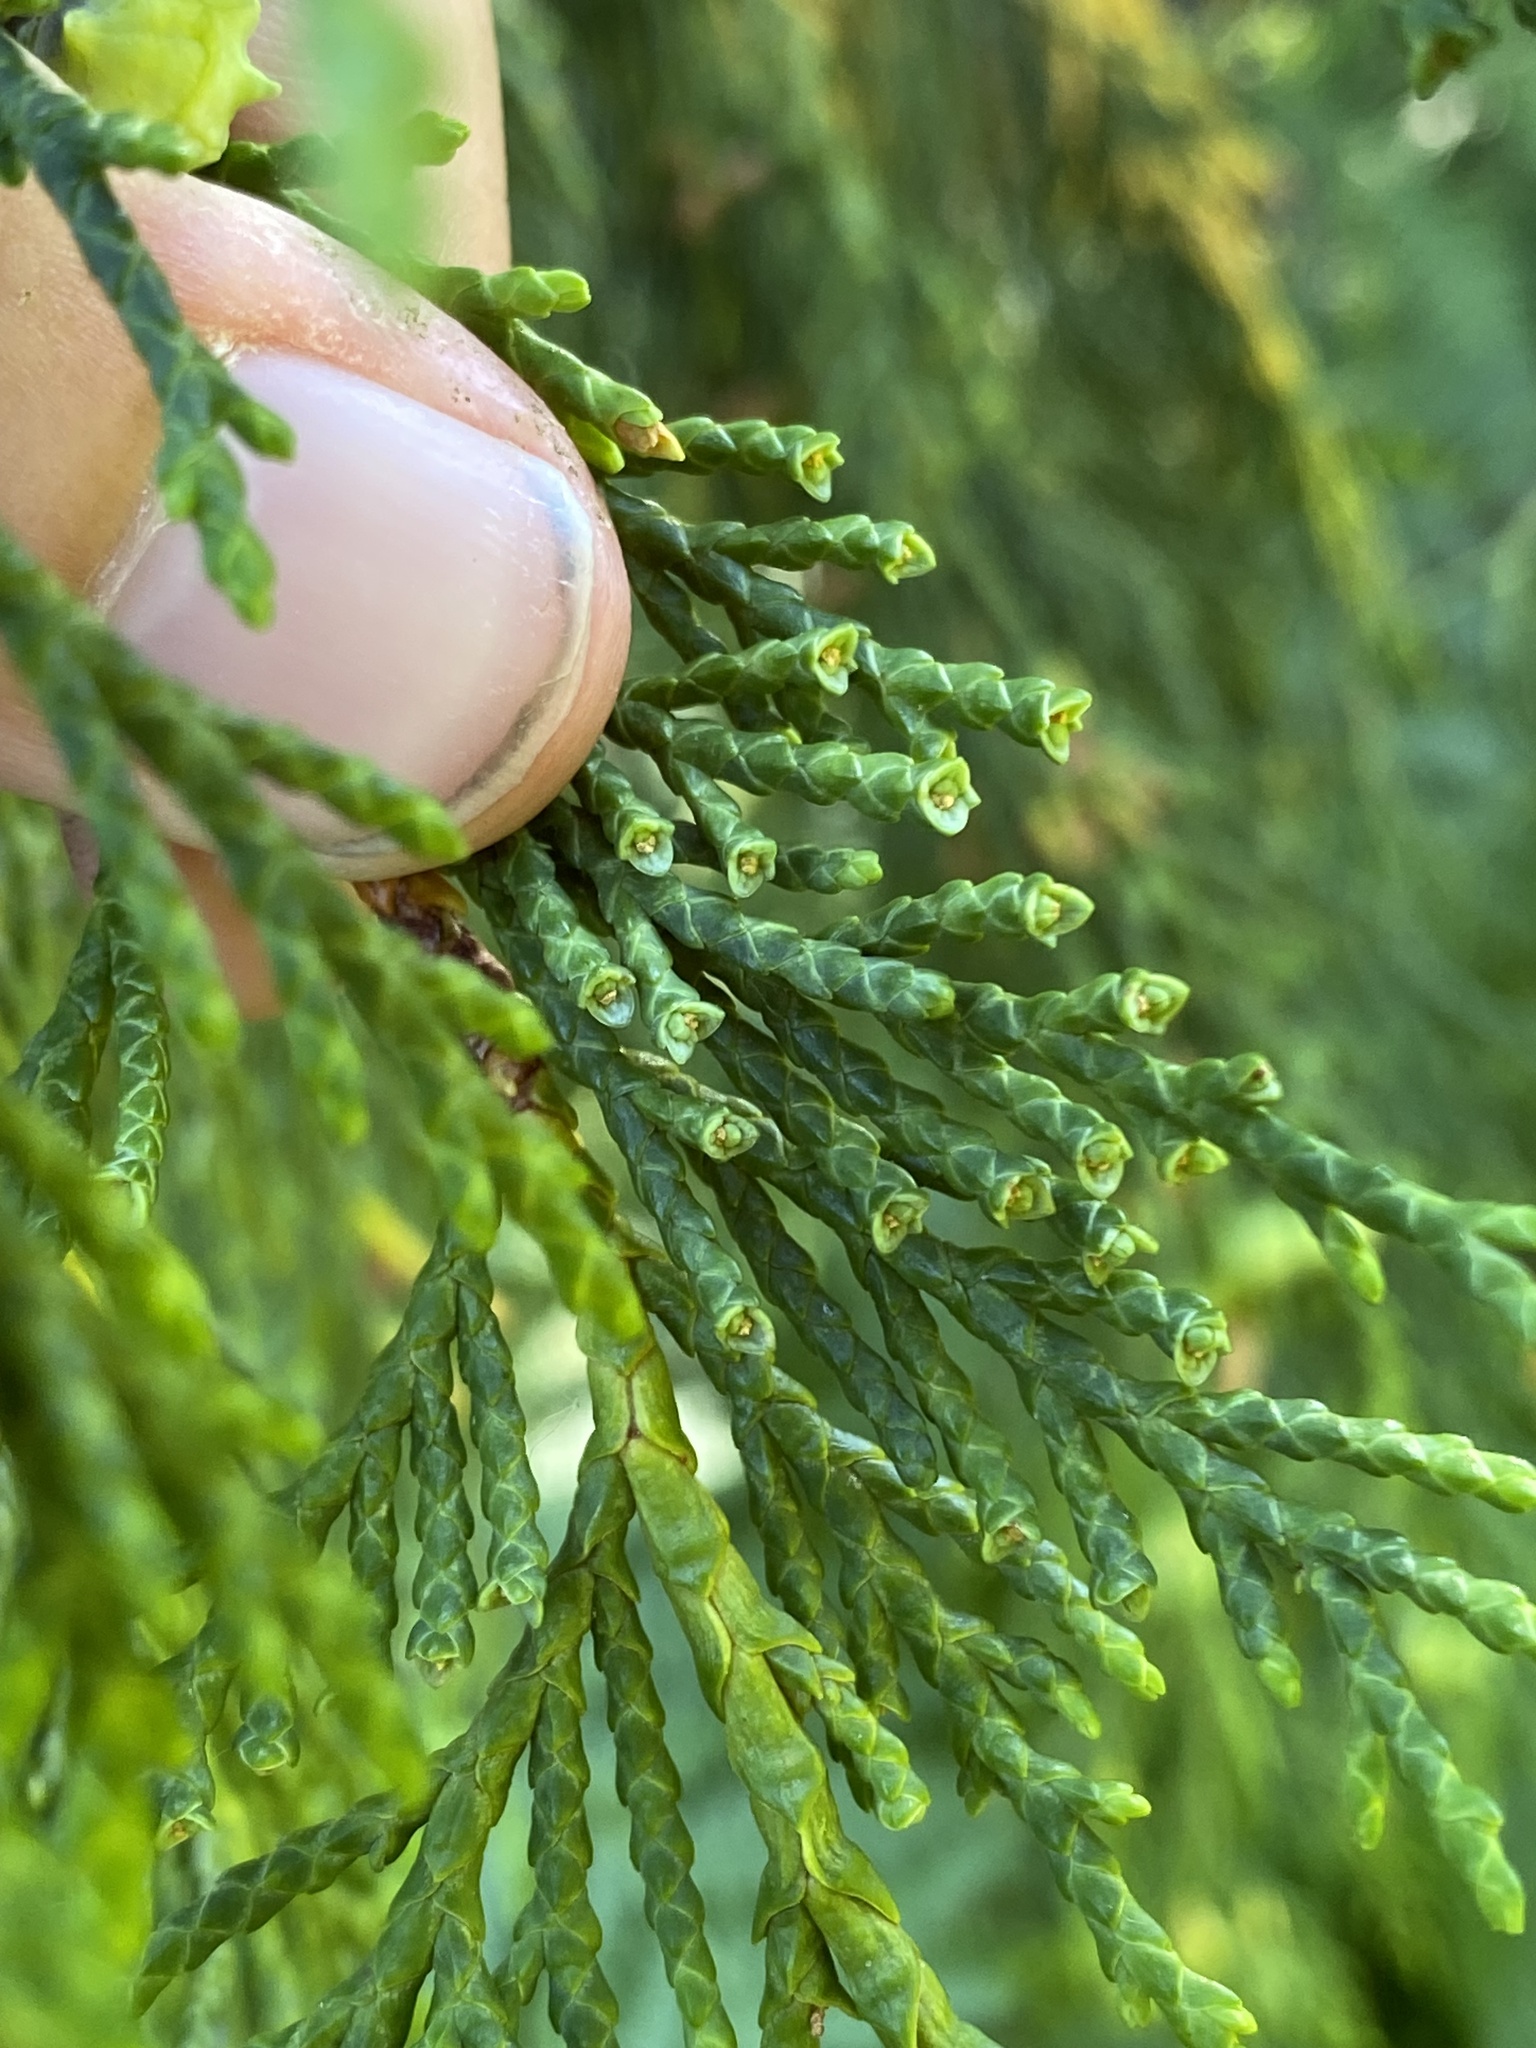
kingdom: Plantae
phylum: Tracheophyta
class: Pinopsida
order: Pinales
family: Cupressaceae
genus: Xanthocyparis
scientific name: Xanthocyparis nootkatensis
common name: Nootka cypress
